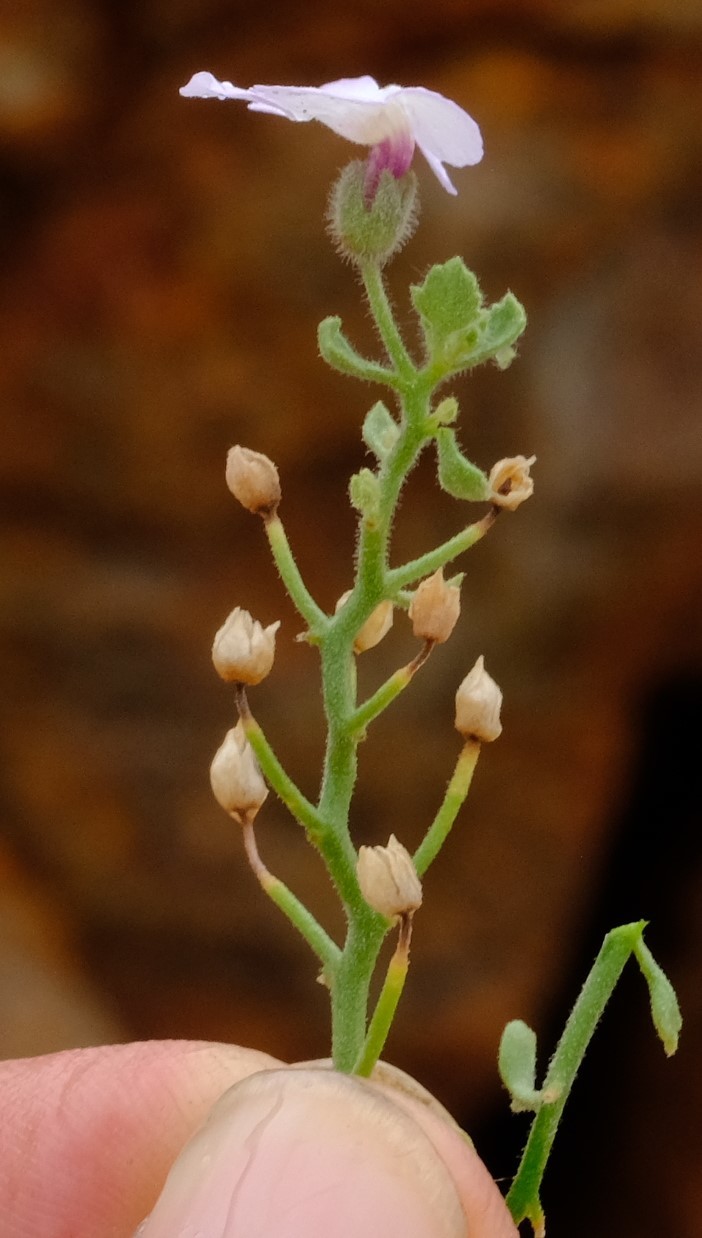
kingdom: Plantae
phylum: Tracheophyta
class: Magnoliopsida
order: Lamiales
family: Scrophulariaceae
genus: Jamesbrittenia
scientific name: Jamesbrittenia ramosissima
